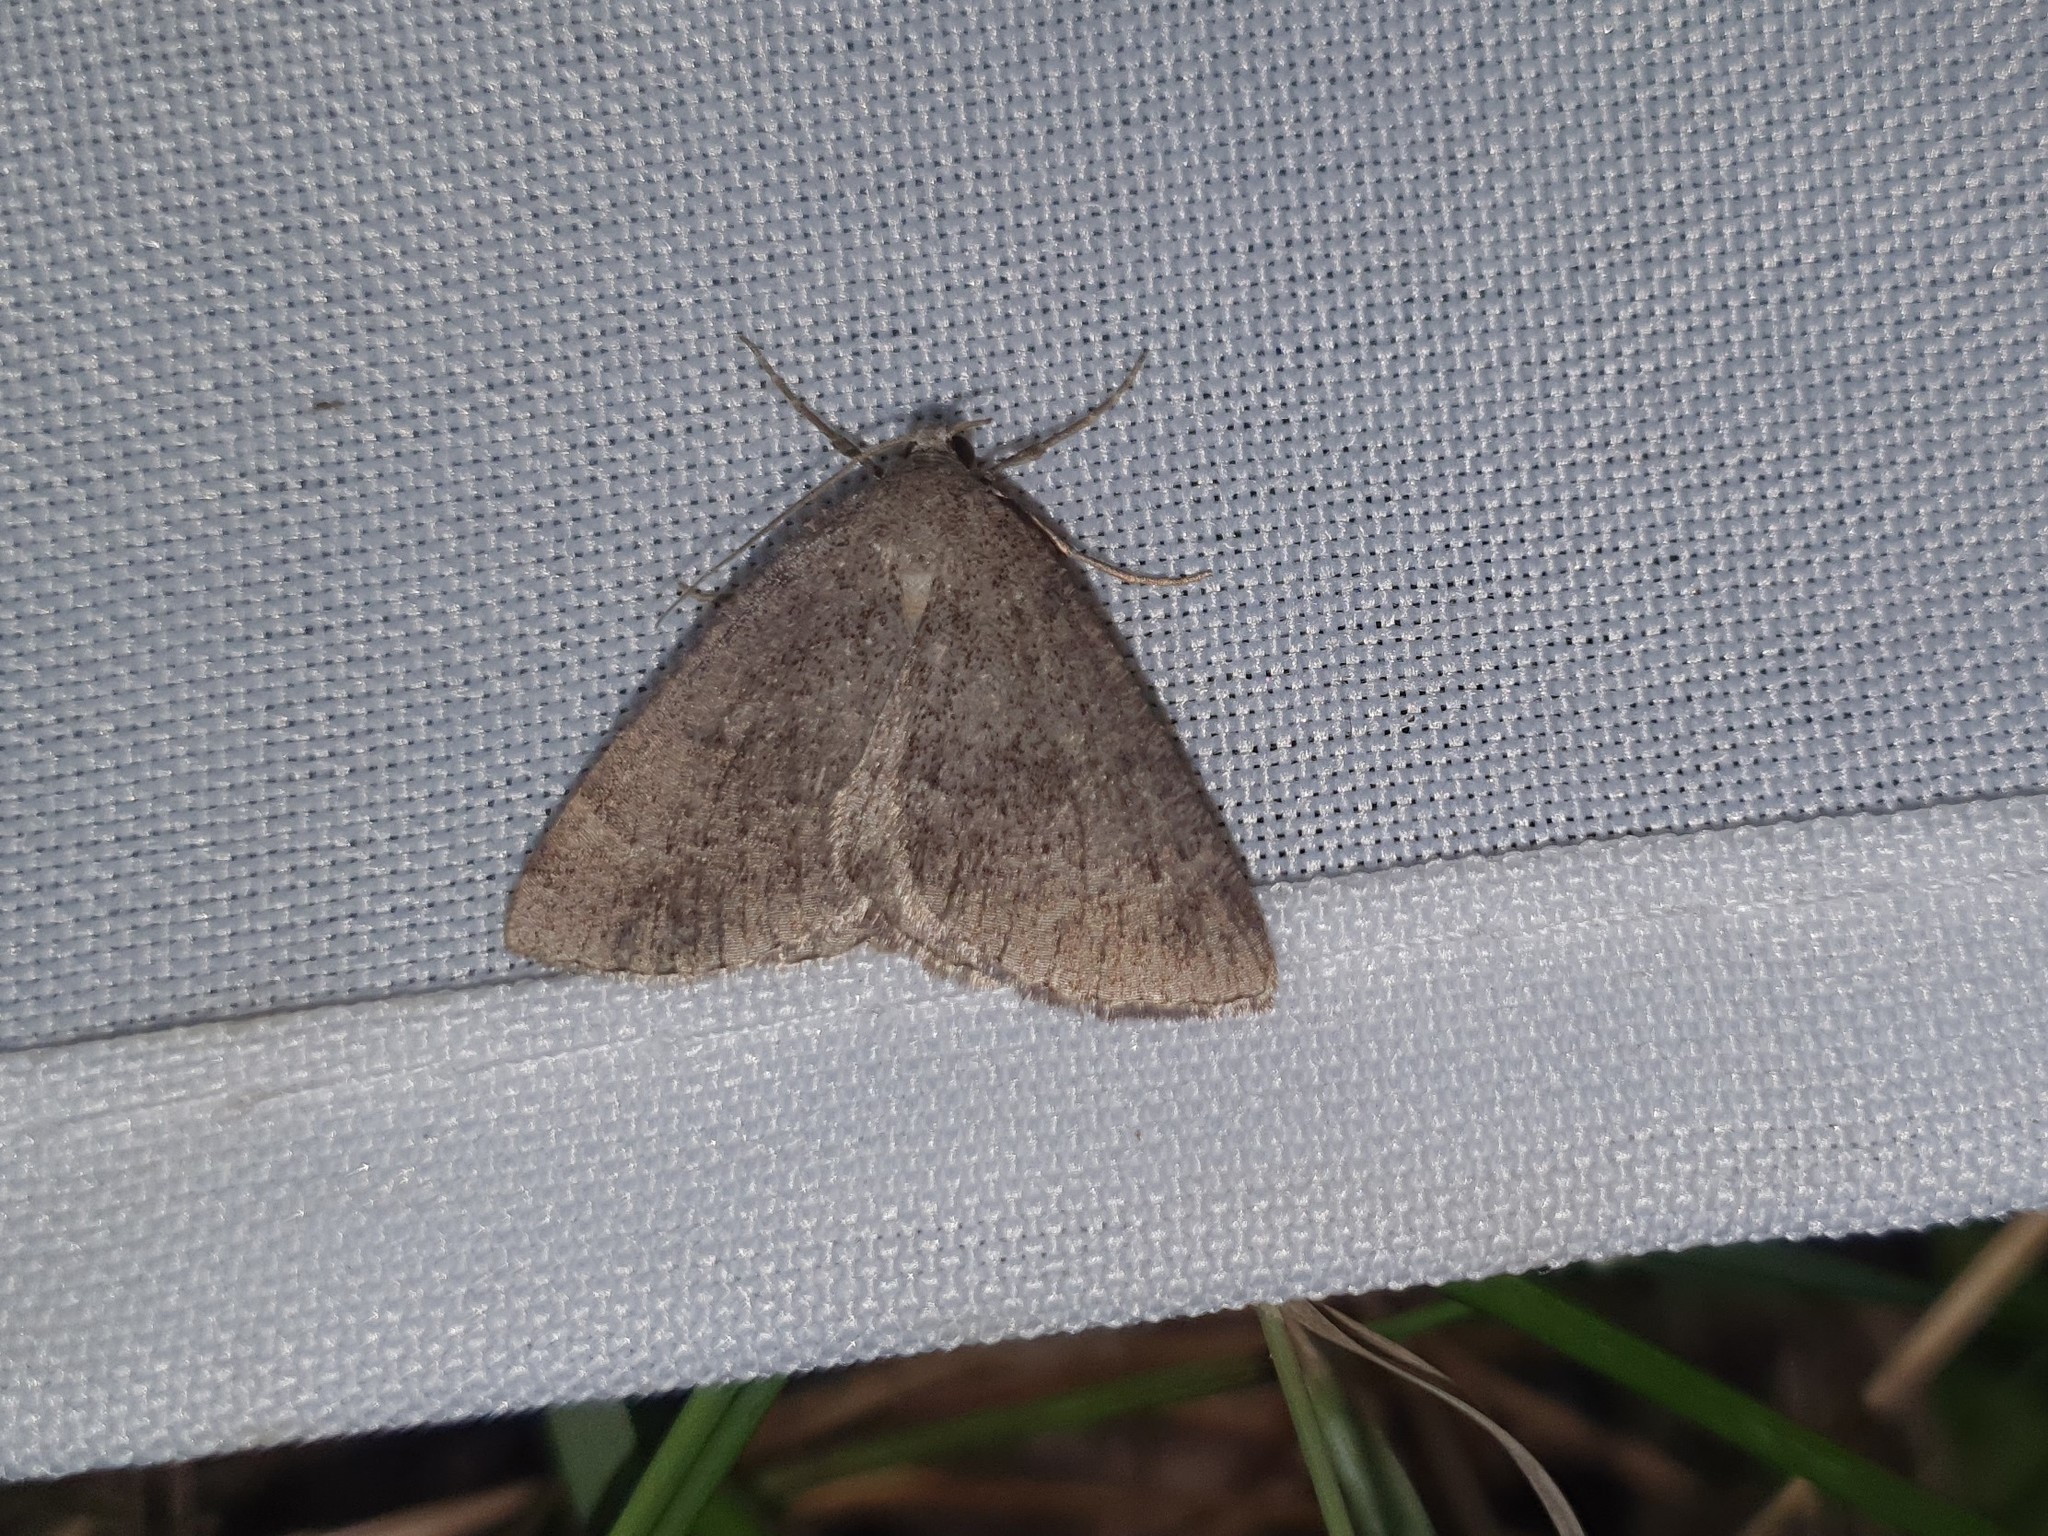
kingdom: Animalia
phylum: Arthropoda
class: Insecta
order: Lepidoptera
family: Geometridae
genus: Pachycnemia
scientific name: Pachycnemia tibiaria
